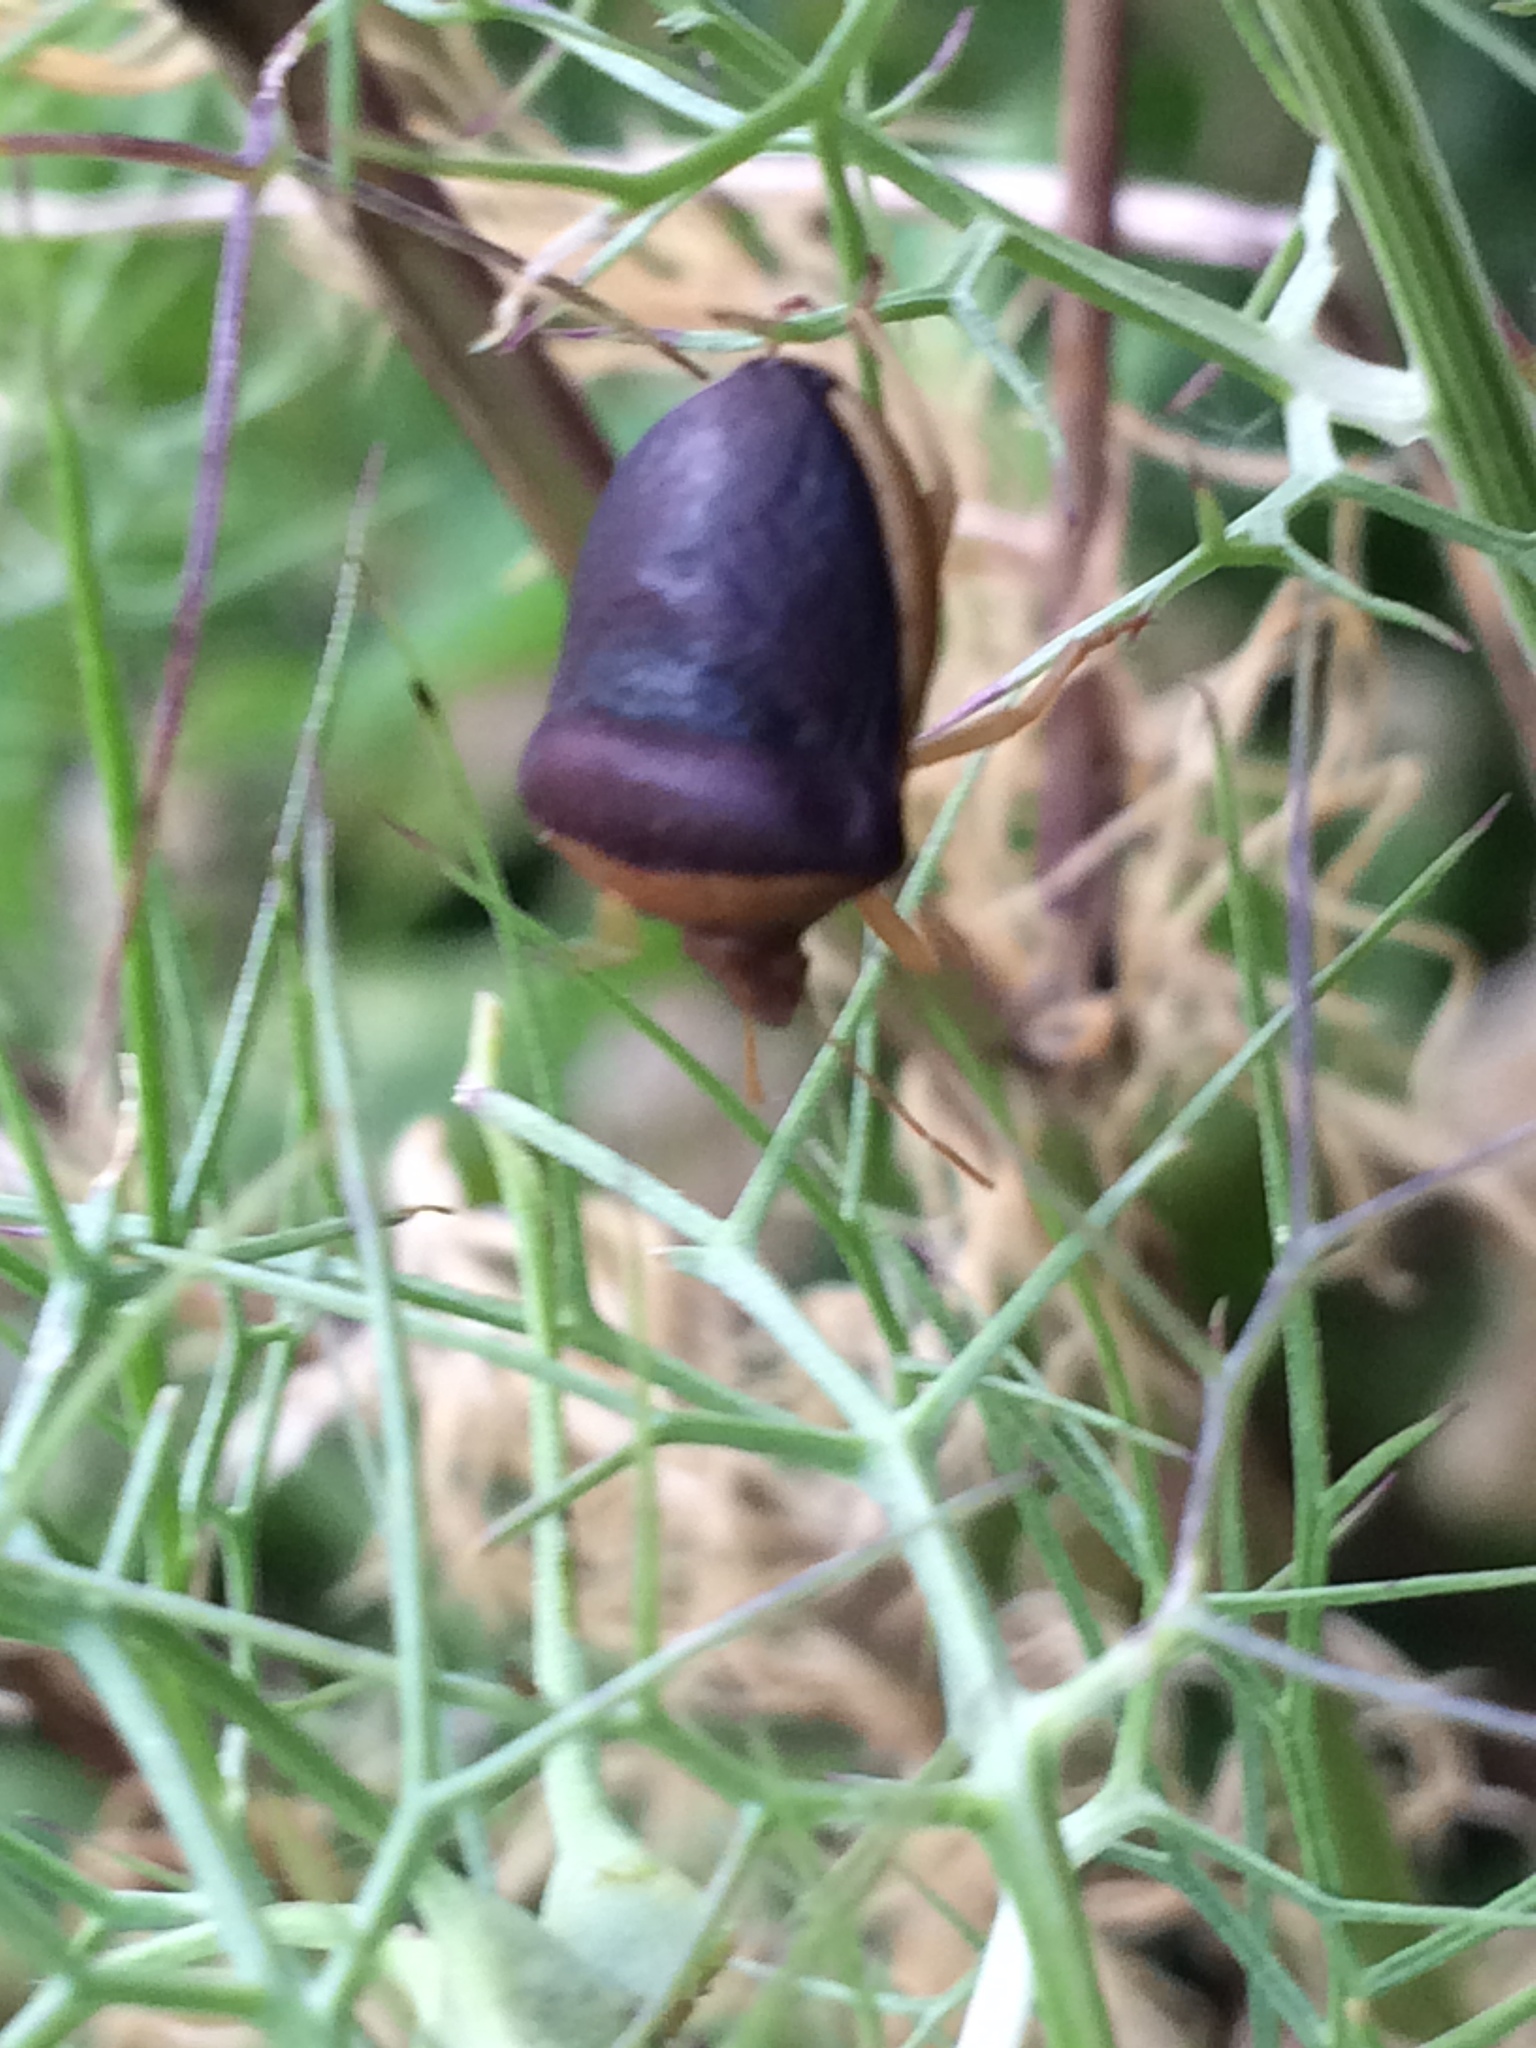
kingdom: Animalia
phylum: Arthropoda
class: Insecta
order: Hemiptera
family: Pentatomidae
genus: Ventocoris
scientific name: Ventocoris rusticus
